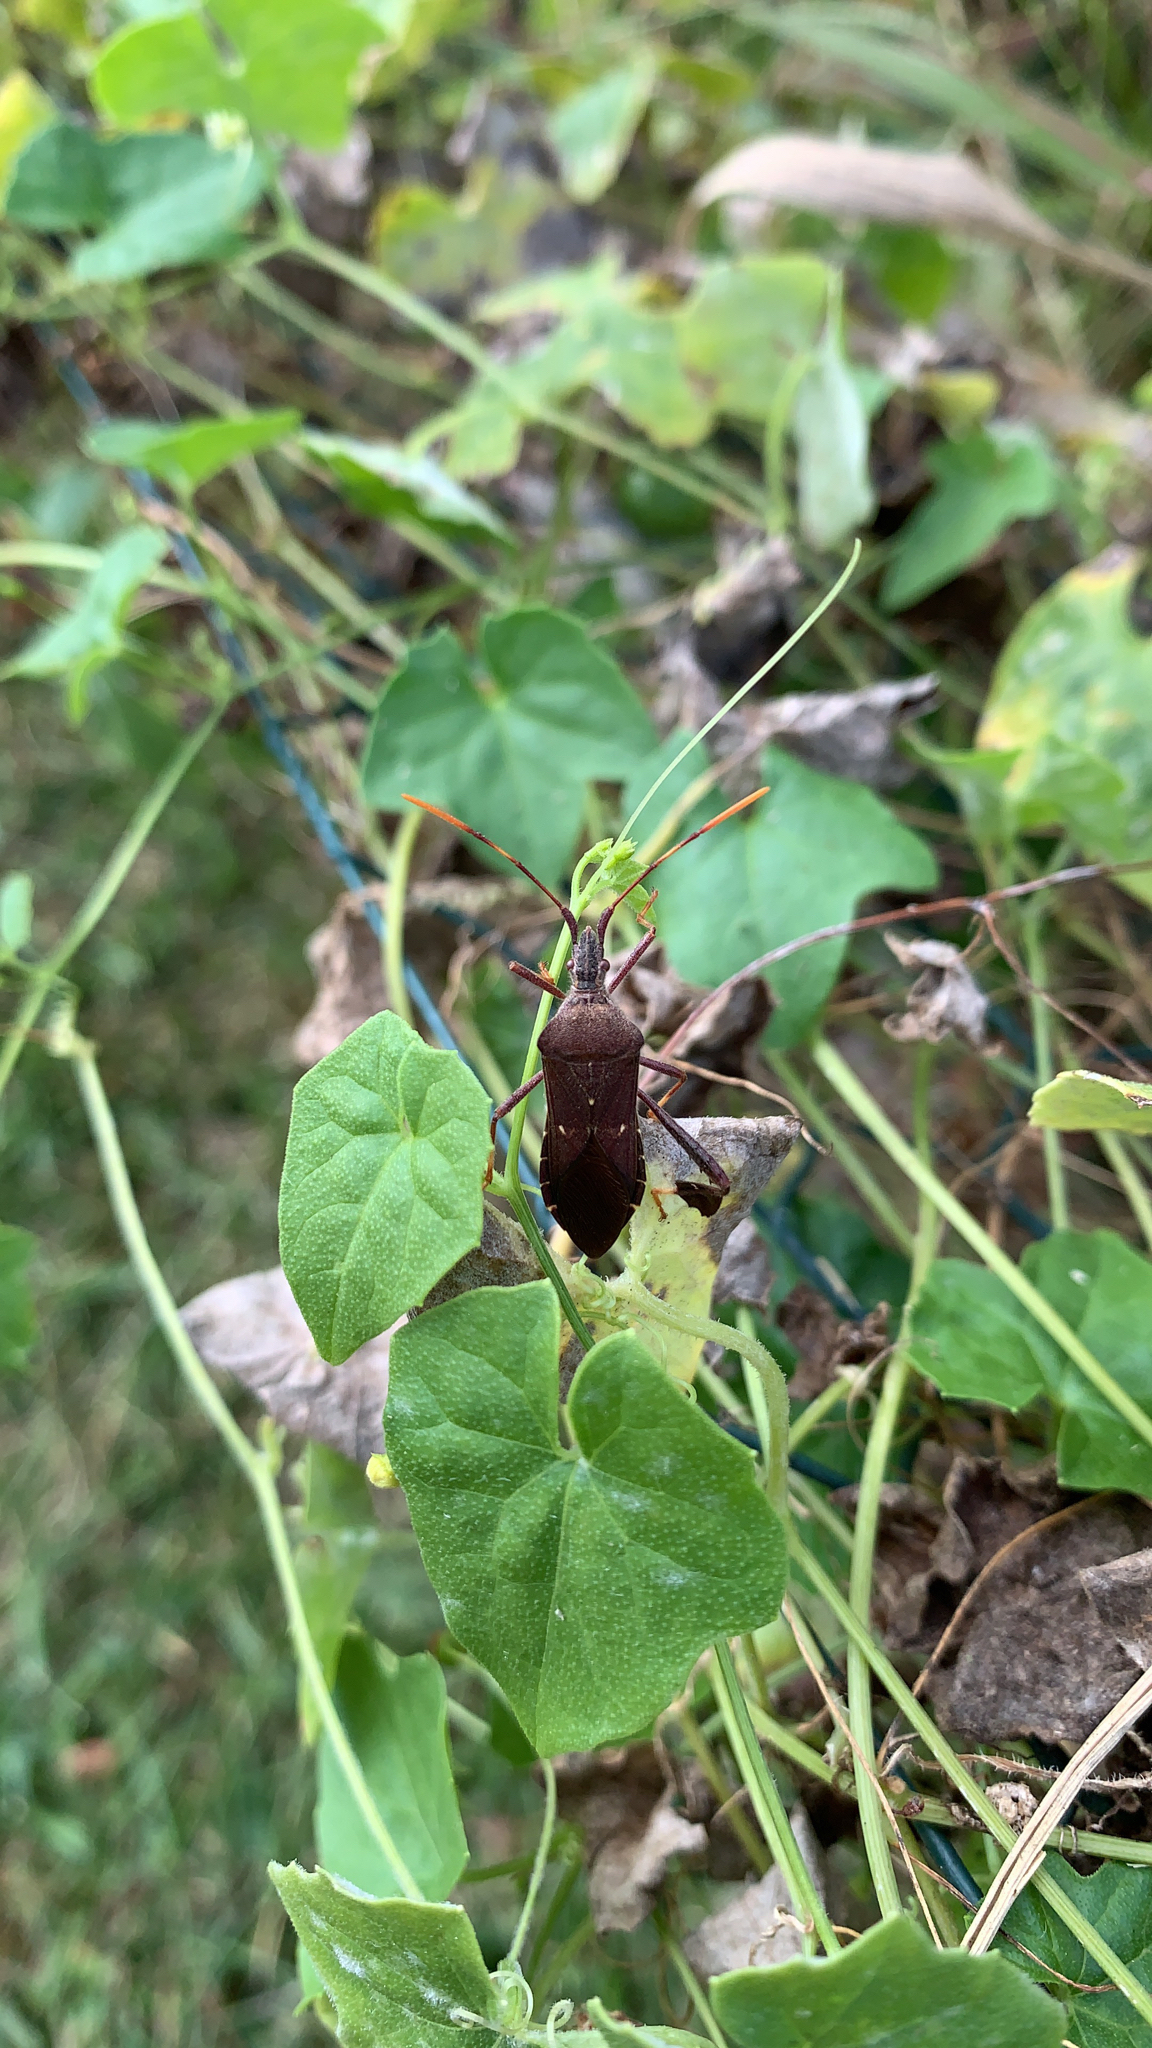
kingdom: Animalia
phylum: Arthropoda
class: Insecta
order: Hemiptera
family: Coreidae
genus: Leptoglossus
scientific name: Leptoglossus oppositus
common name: Northern leaf-footed bug
